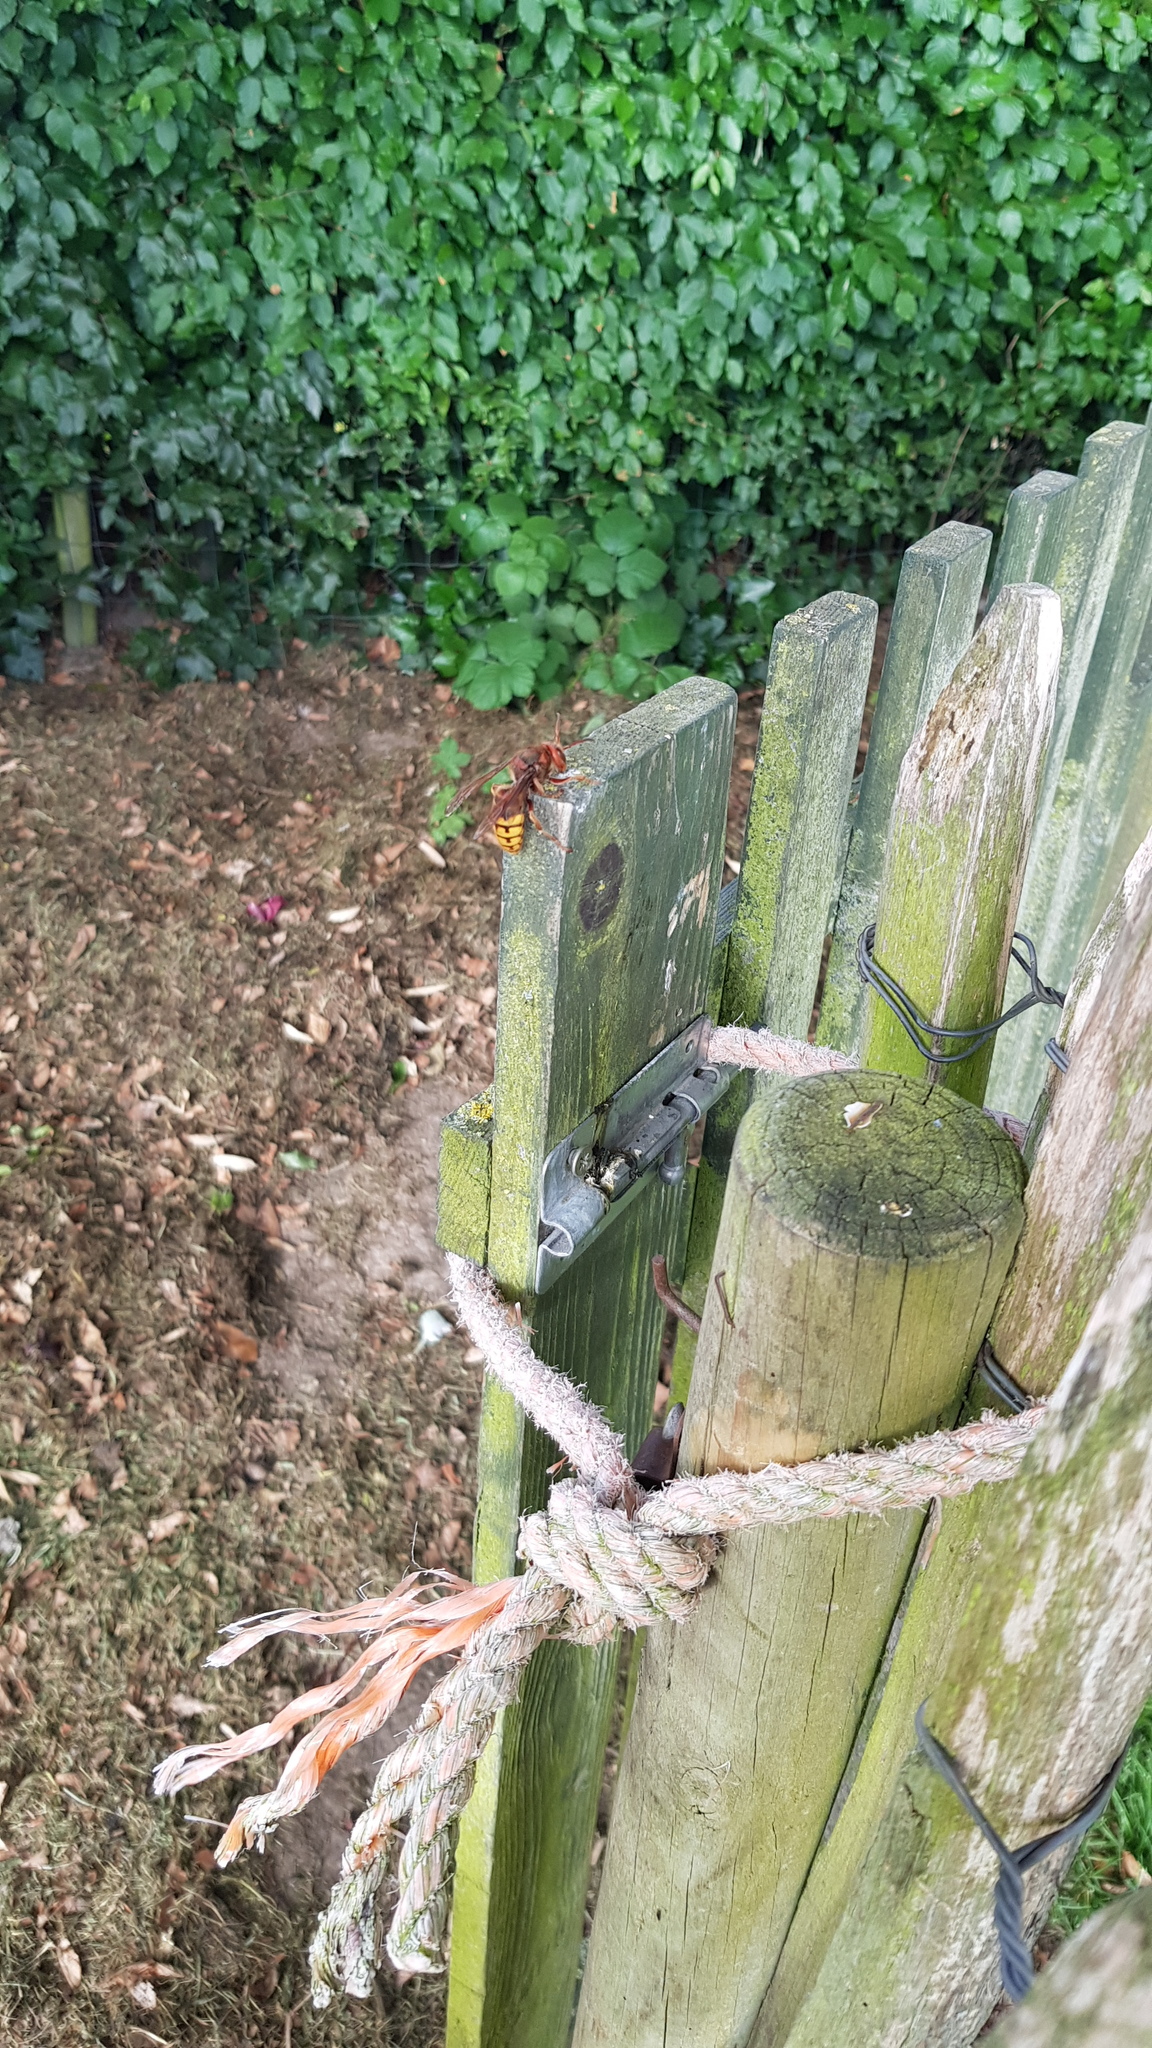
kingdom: Animalia
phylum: Arthropoda
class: Insecta
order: Hymenoptera
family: Vespidae
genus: Vespa
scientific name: Vespa crabro
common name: Hornet
